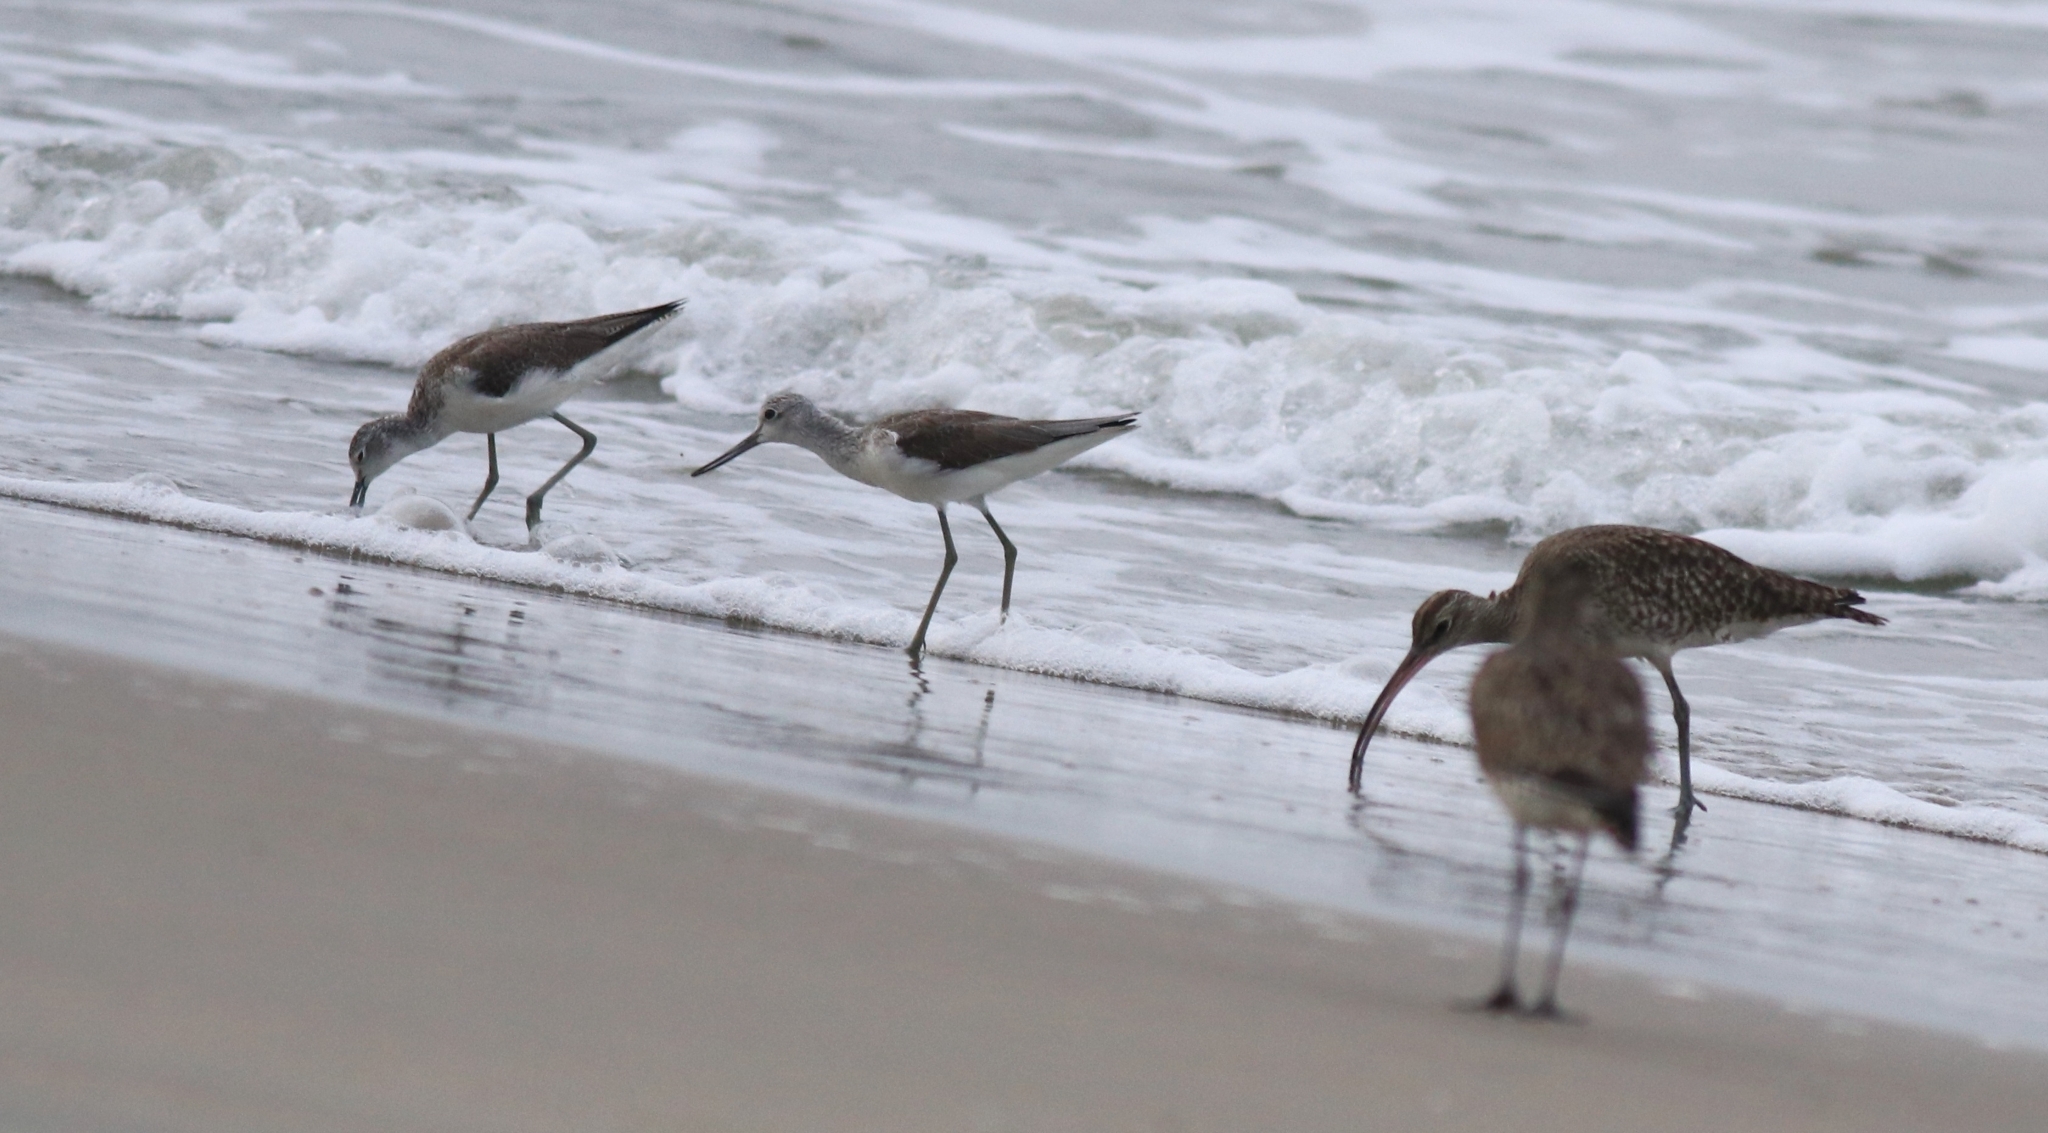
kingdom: Animalia
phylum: Chordata
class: Aves
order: Charadriiformes
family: Scolopacidae
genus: Tringa
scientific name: Tringa nebularia
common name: Common greenshank
